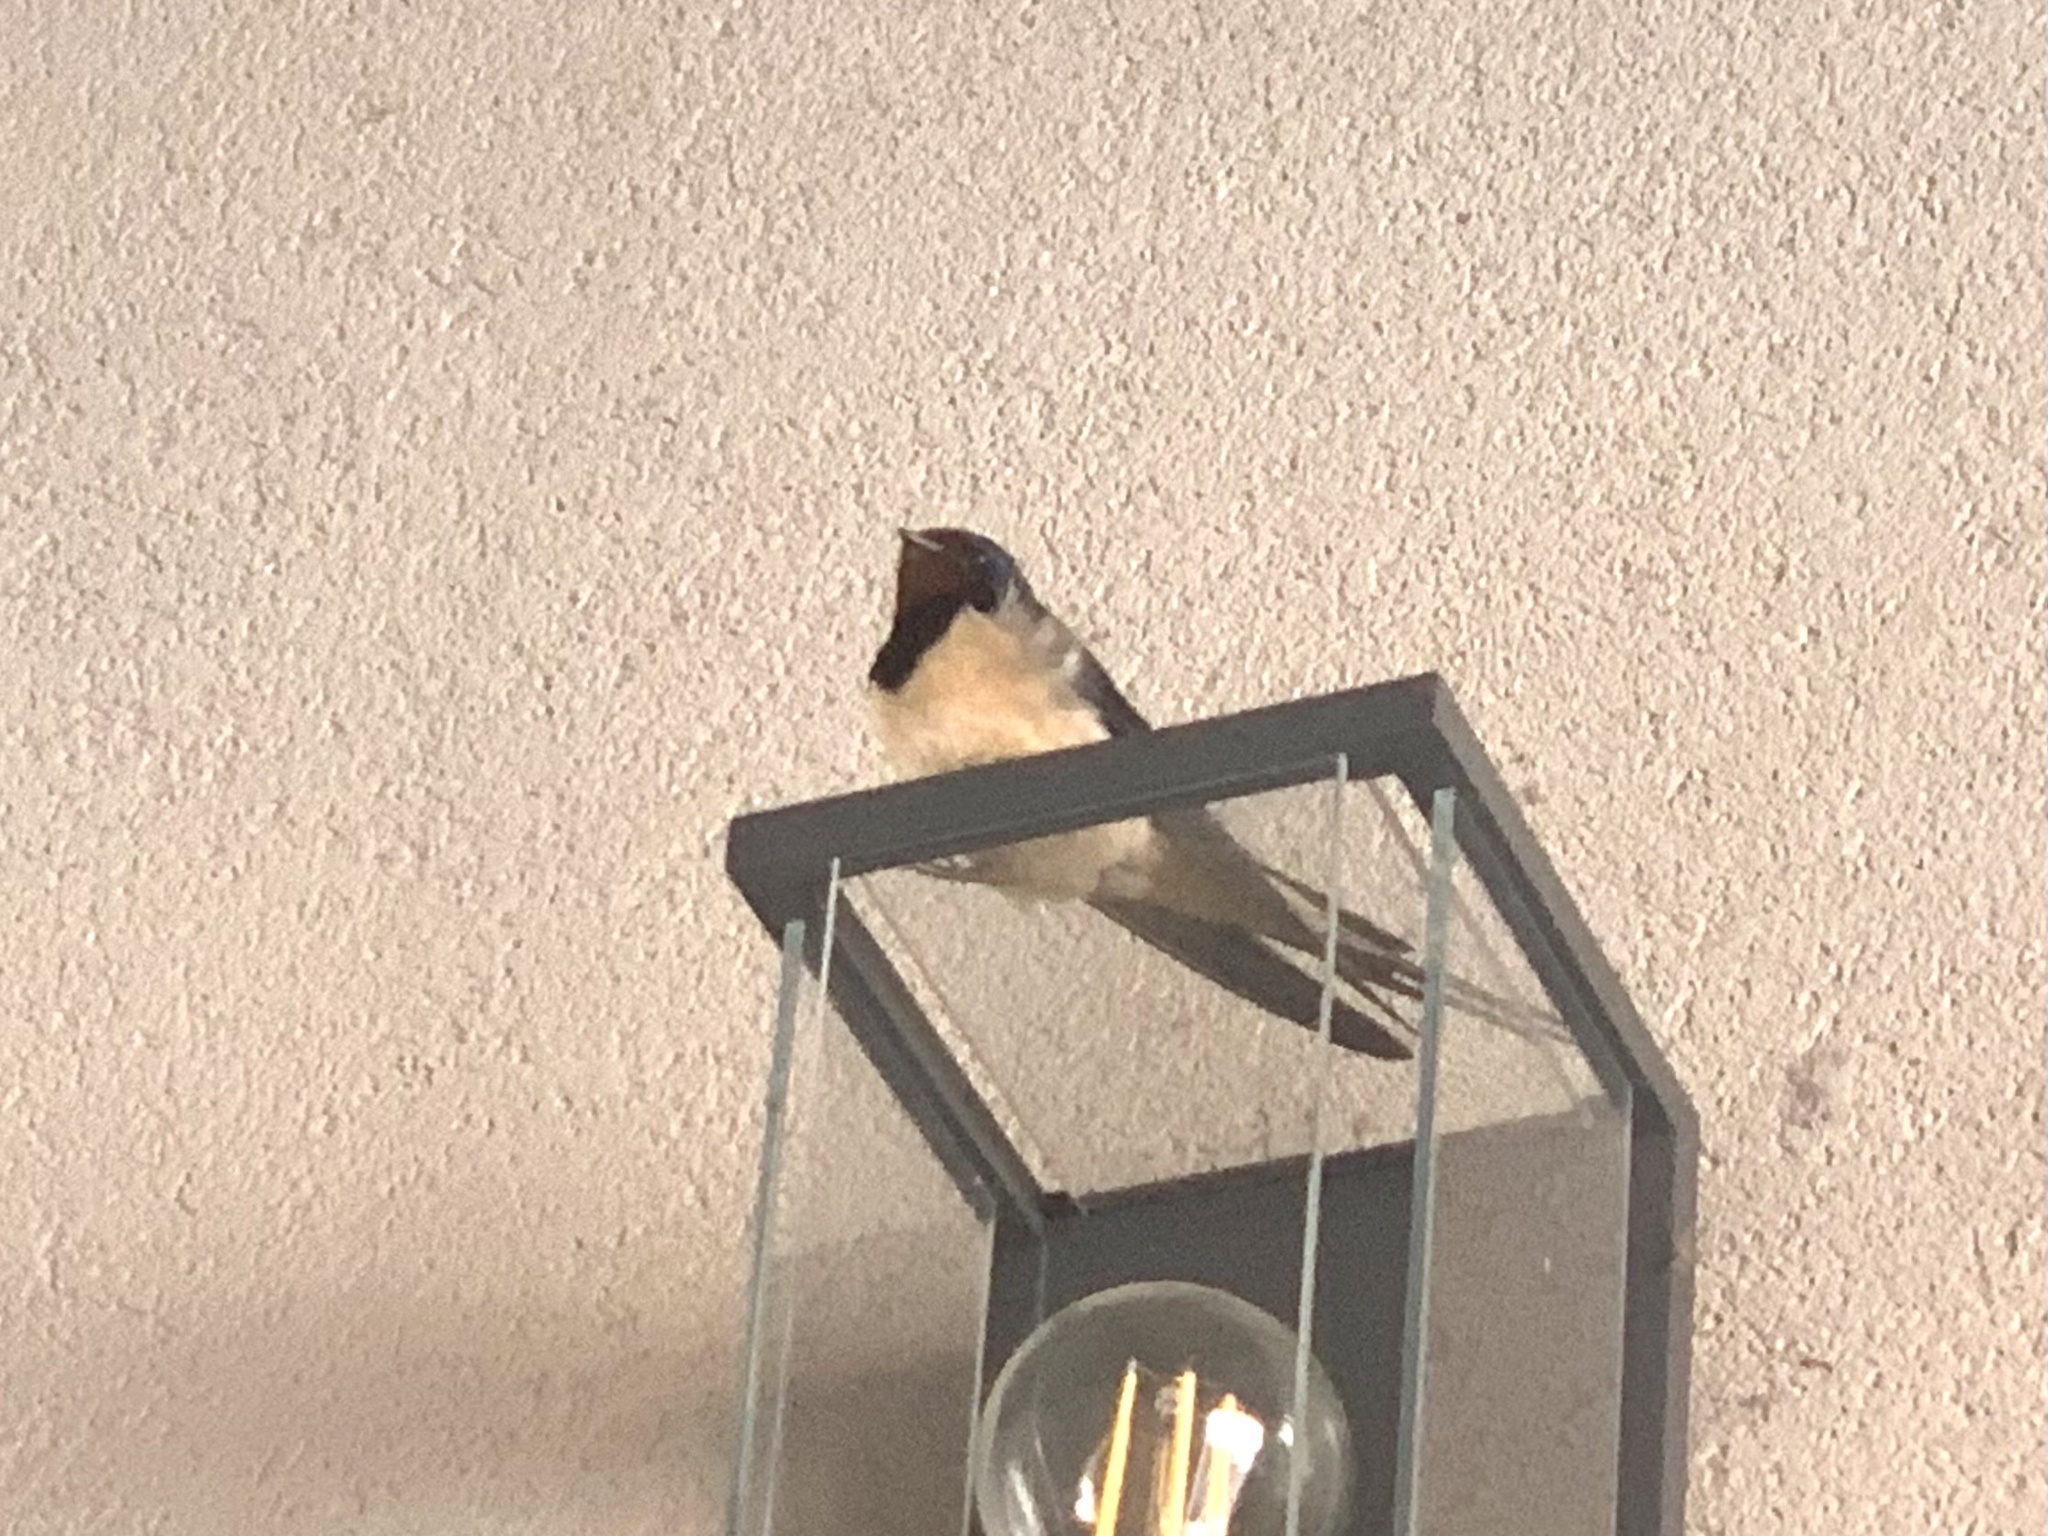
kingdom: Animalia
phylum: Chordata
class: Aves
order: Passeriformes
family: Hirundinidae
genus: Hirundo
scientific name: Hirundo rustica
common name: Barn swallow
